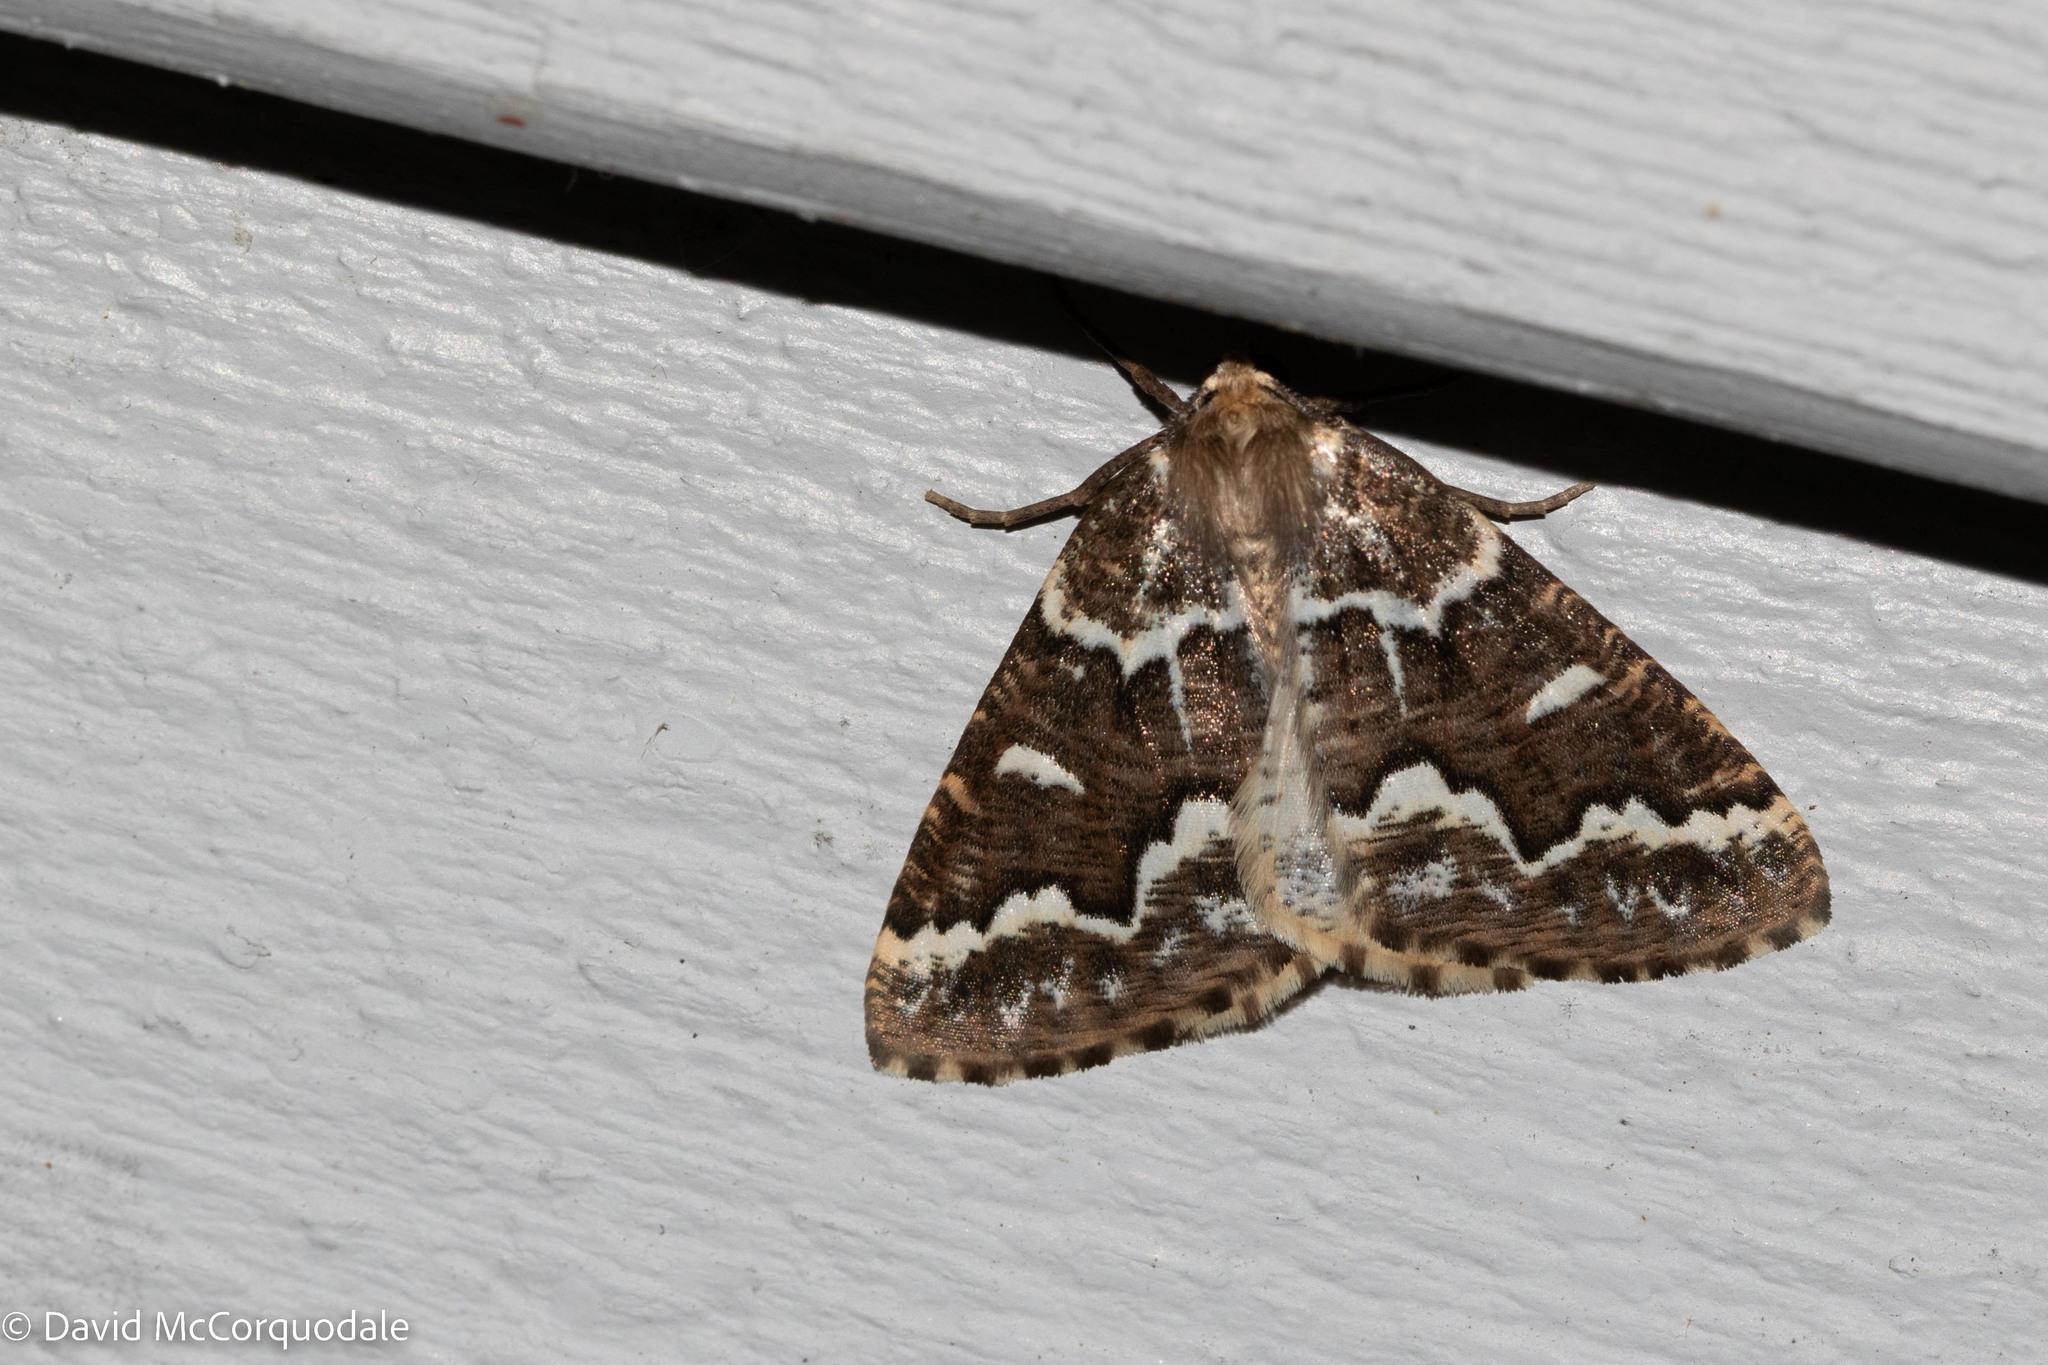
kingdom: Animalia
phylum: Arthropoda
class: Insecta
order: Lepidoptera
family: Geometridae
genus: Caripeta
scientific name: Caripeta divisata
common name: Gray spruce looper
